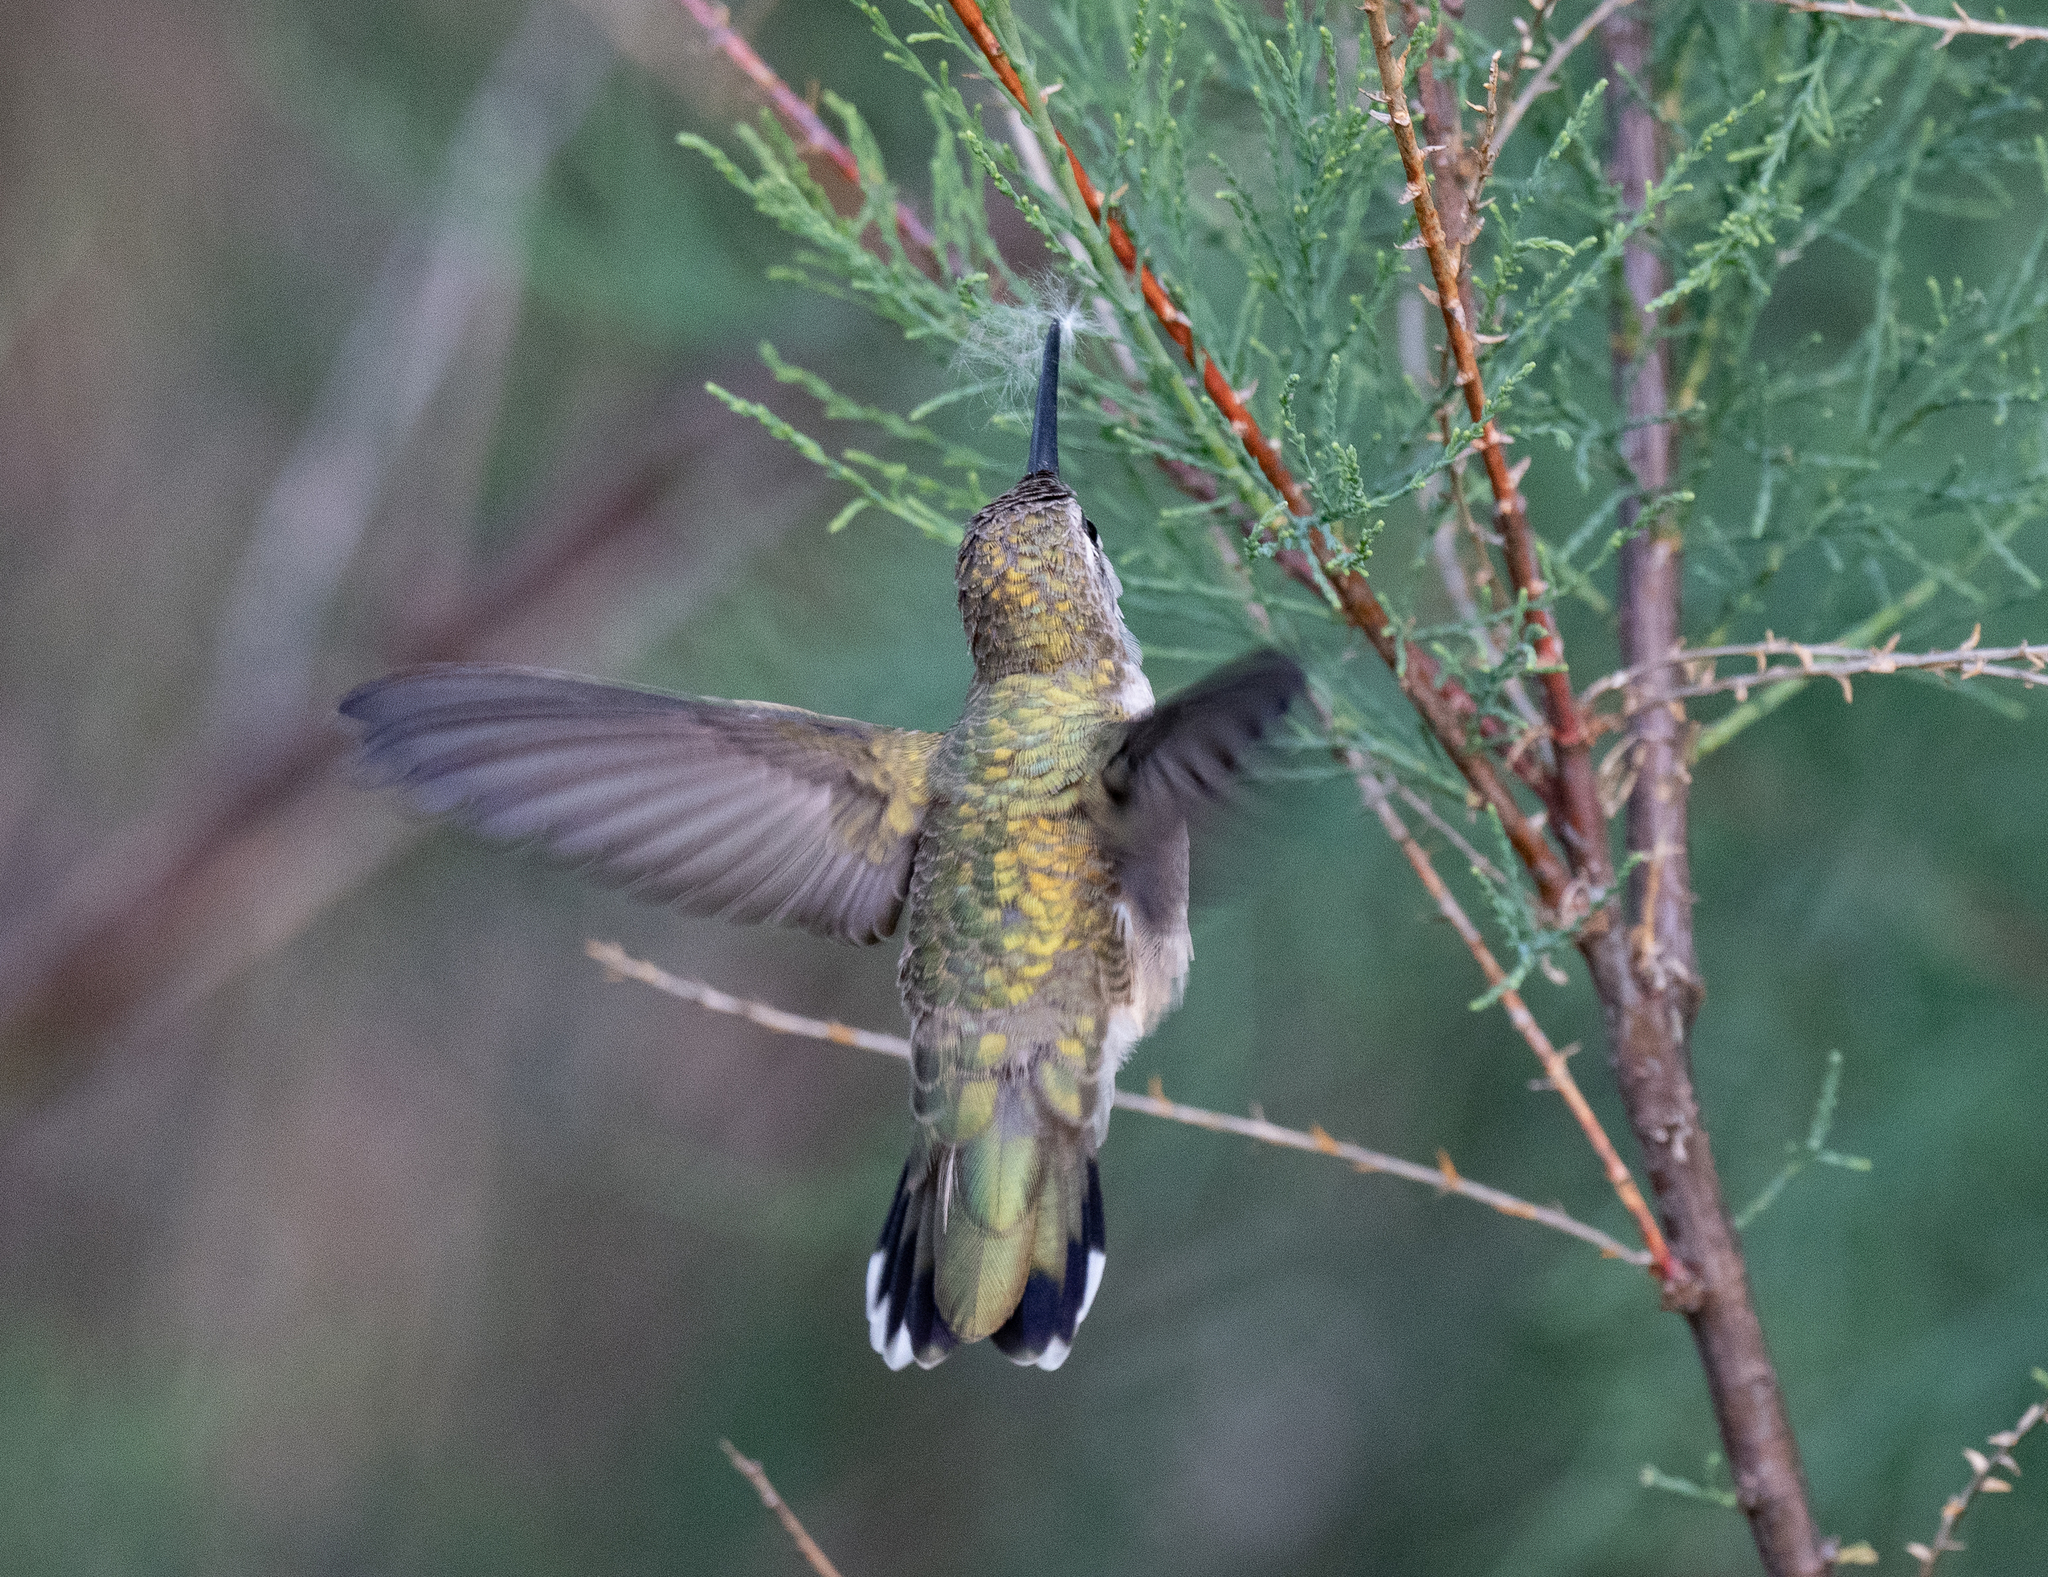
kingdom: Animalia
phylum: Chordata
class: Aves
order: Apodiformes
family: Trochilidae
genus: Archilochus
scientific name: Archilochus alexandri
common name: Black-chinned hummingbird
